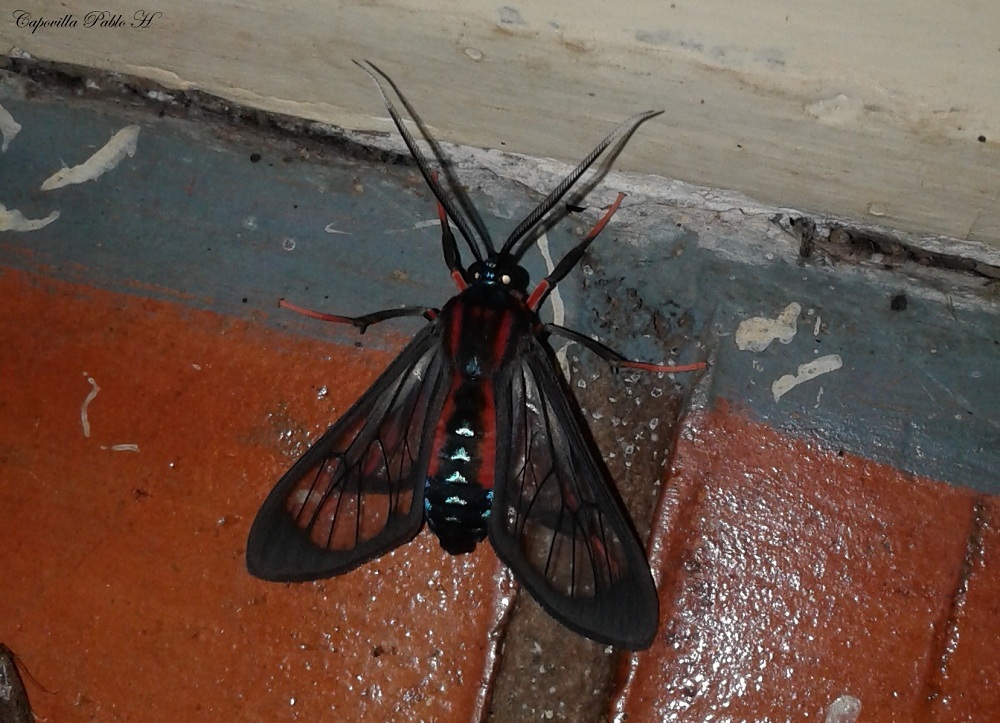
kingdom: Animalia
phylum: Arthropoda
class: Insecta
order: Lepidoptera
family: Erebidae
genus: Cosmosoma
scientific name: Cosmosoma auge
